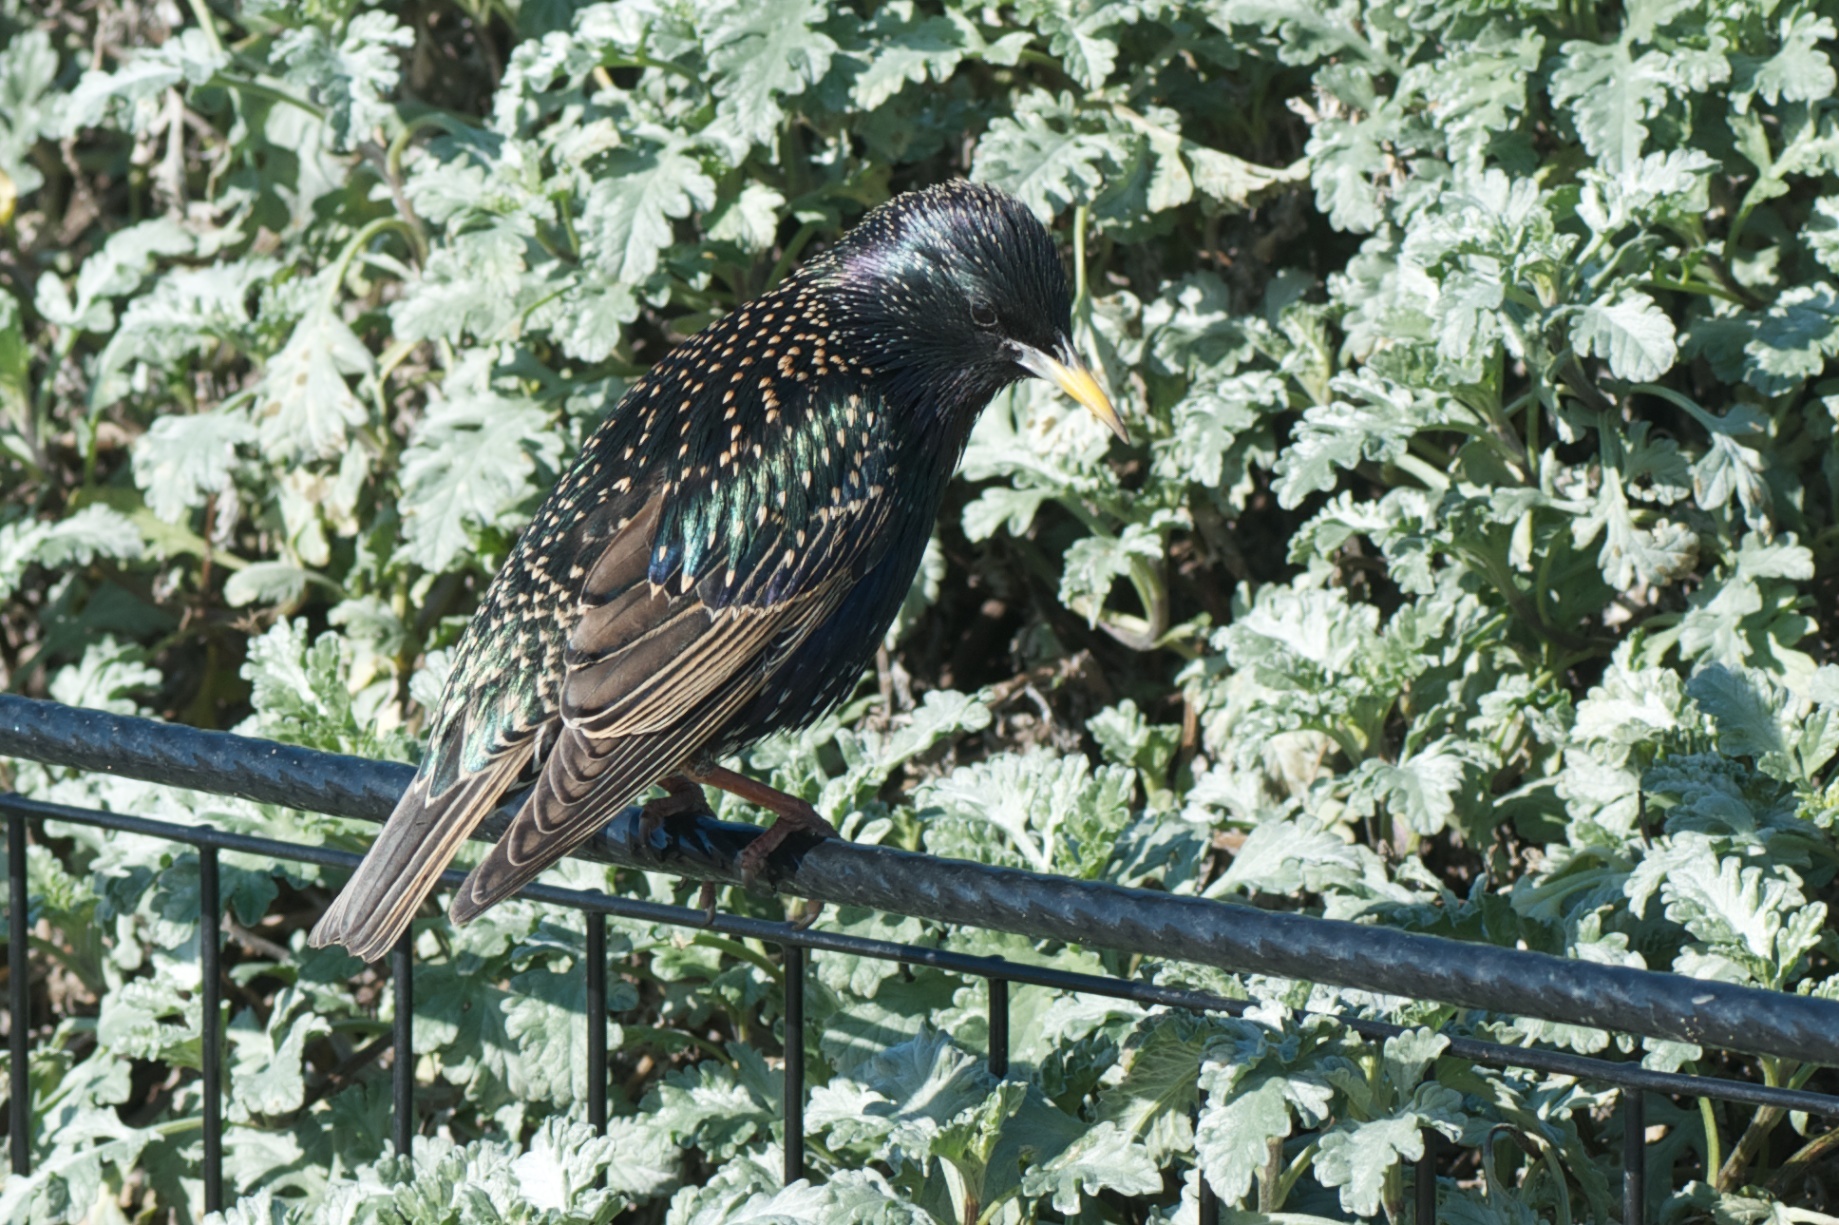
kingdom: Animalia
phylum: Chordata
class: Aves
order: Passeriformes
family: Sturnidae
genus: Sturnus
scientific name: Sturnus vulgaris
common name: Common starling
